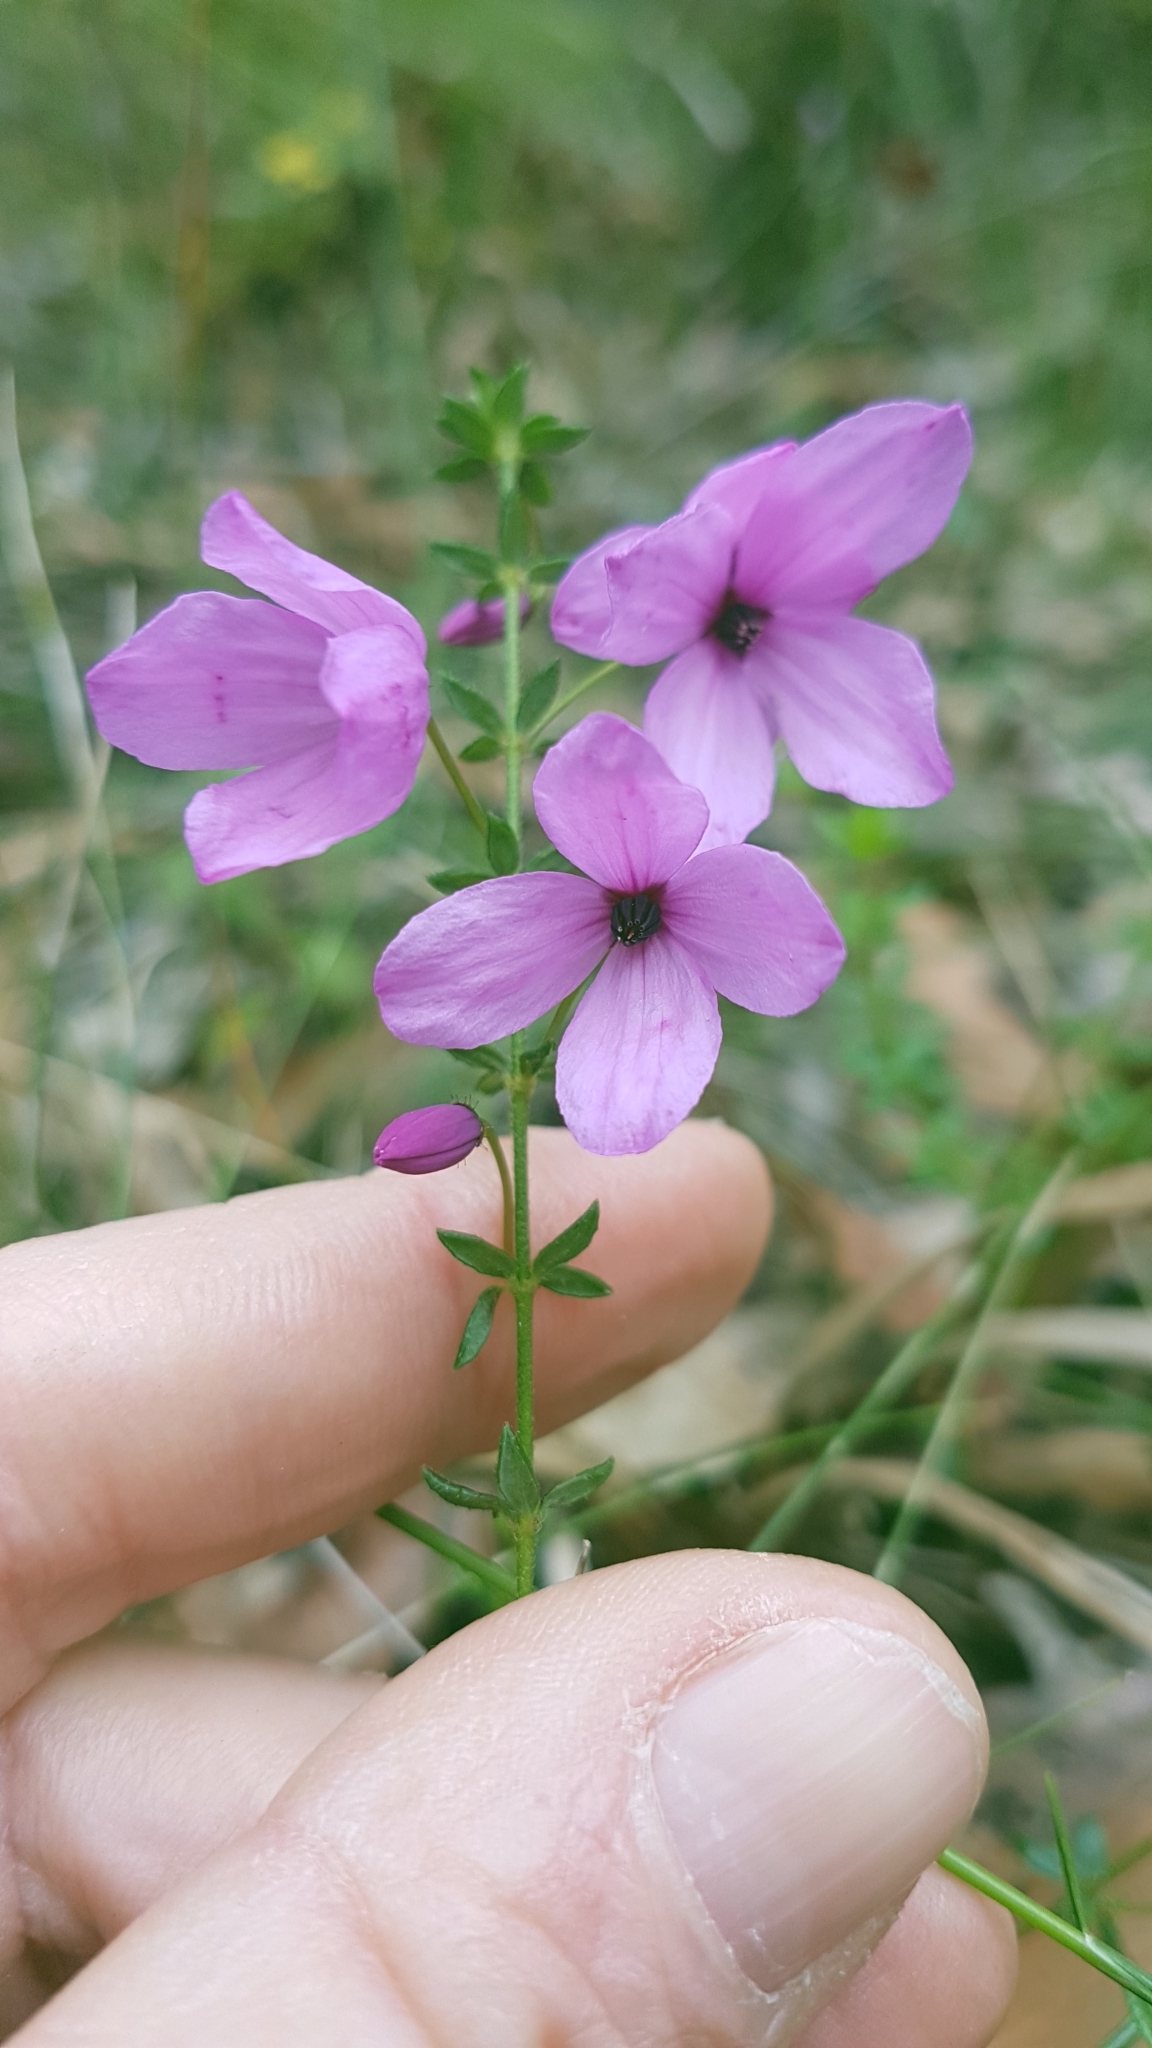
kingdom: Plantae
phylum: Tracheophyta
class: Magnoliopsida
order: Oxalidales
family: Elaeocarpaceae
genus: Tetratheca
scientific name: Tetratheca thymifolia
